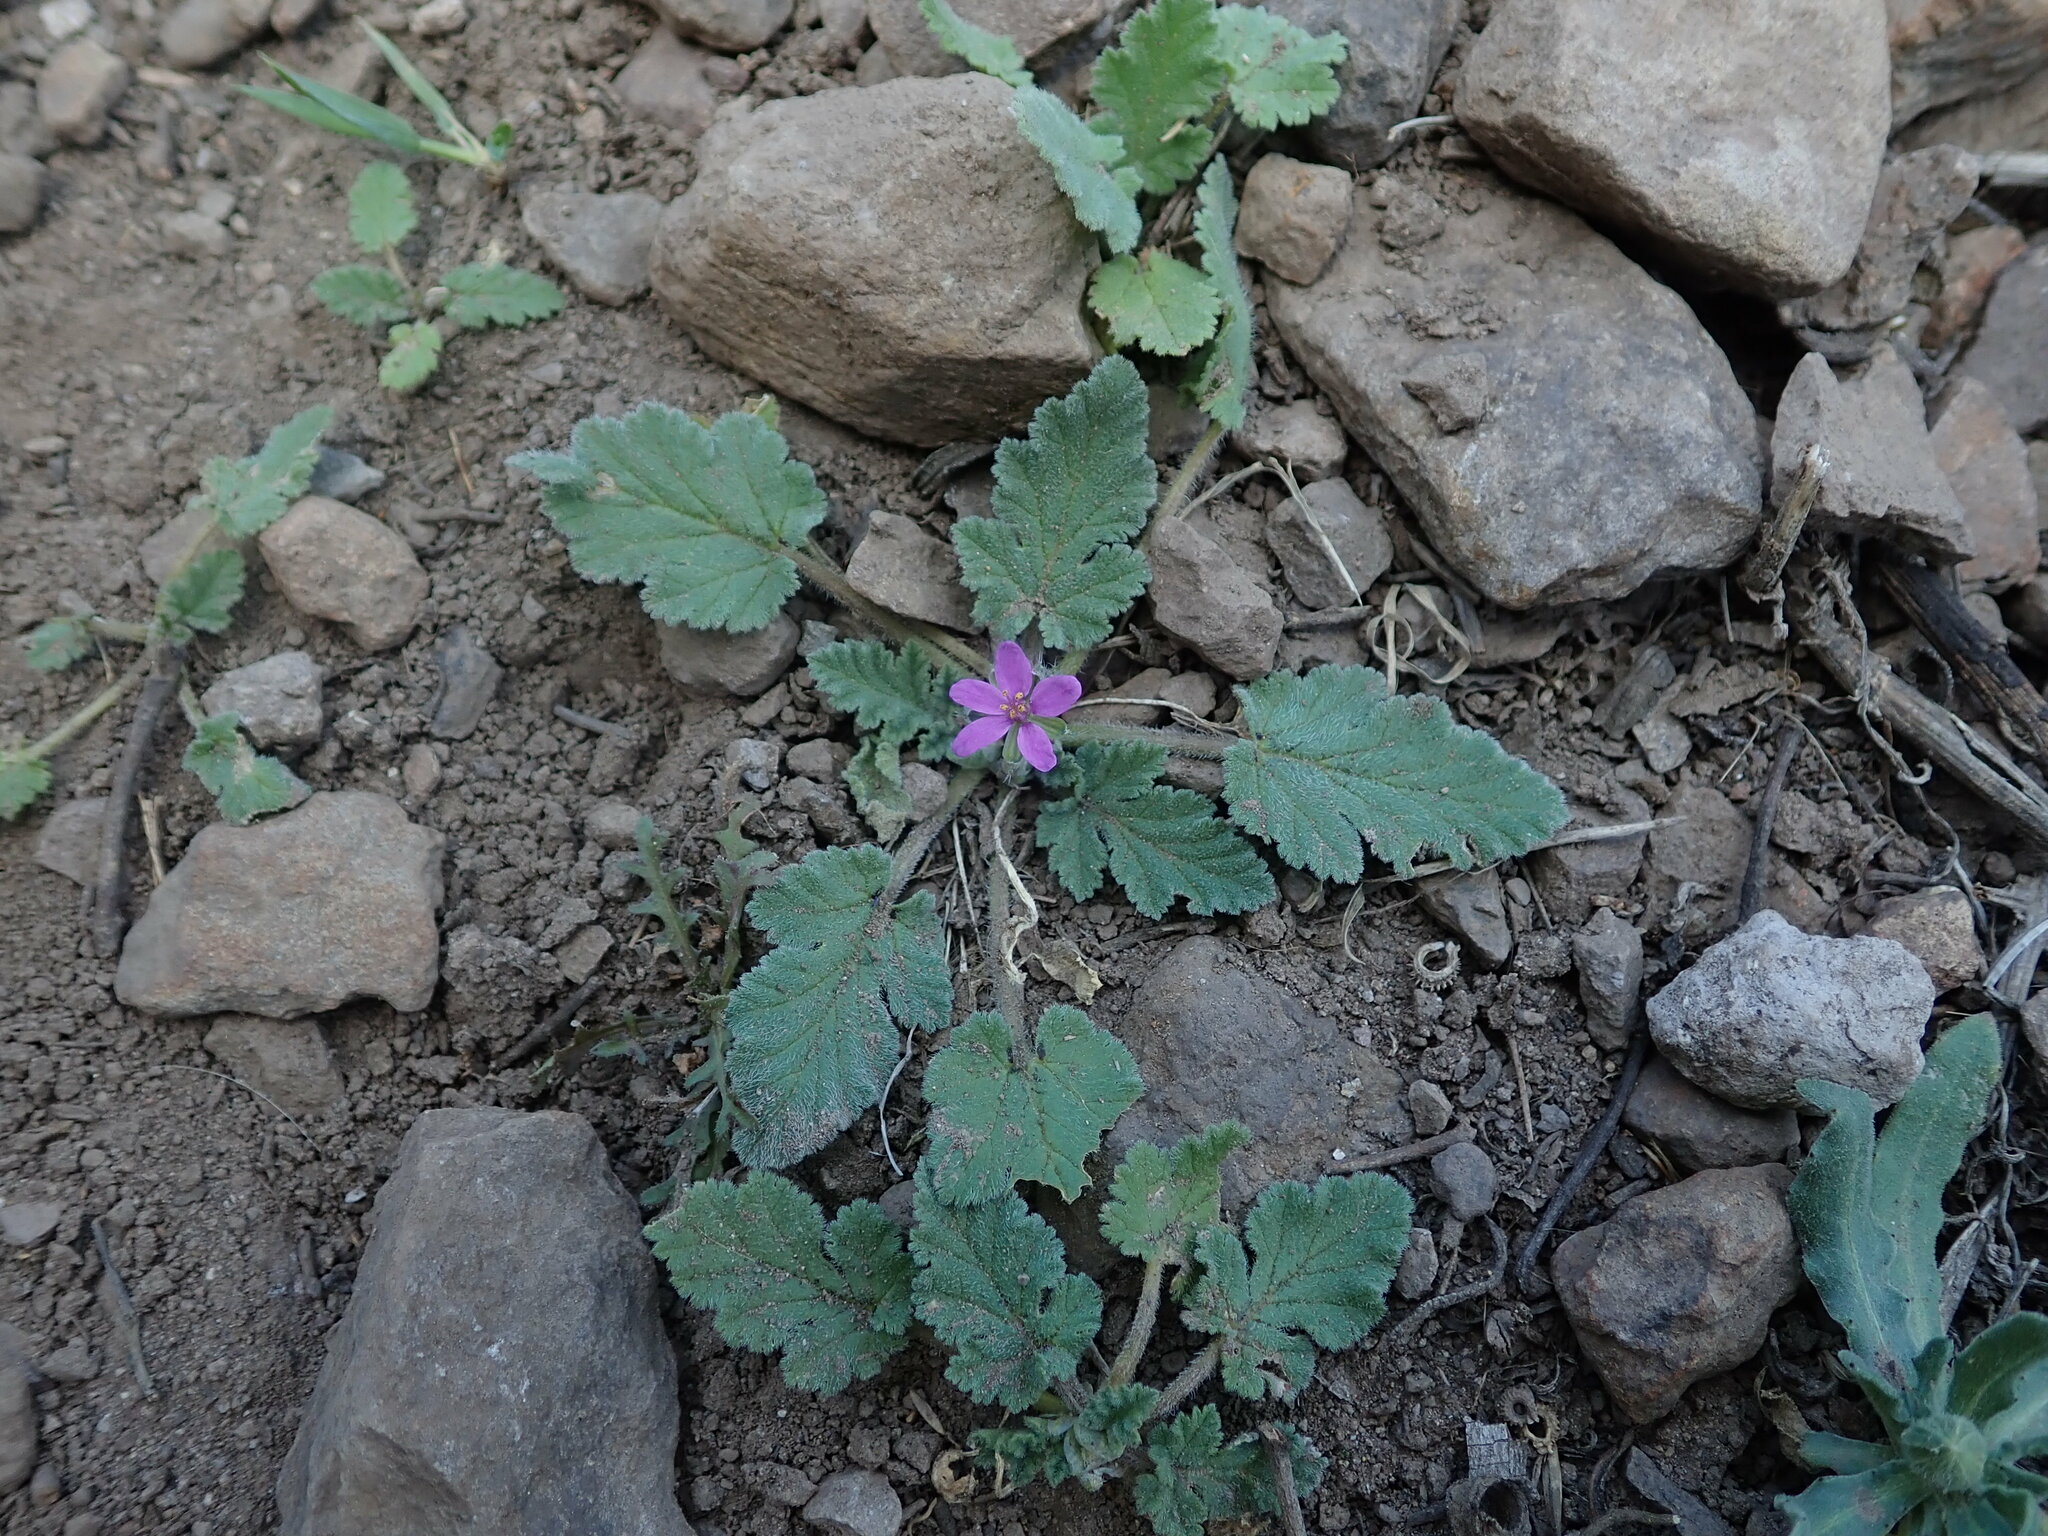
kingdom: Plantae
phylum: Tracheophyta
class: Magnoliopsida
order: Geraniales
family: Geraniaceae
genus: Erodium
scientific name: Erodium malacoides
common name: Soft stork's-bill
